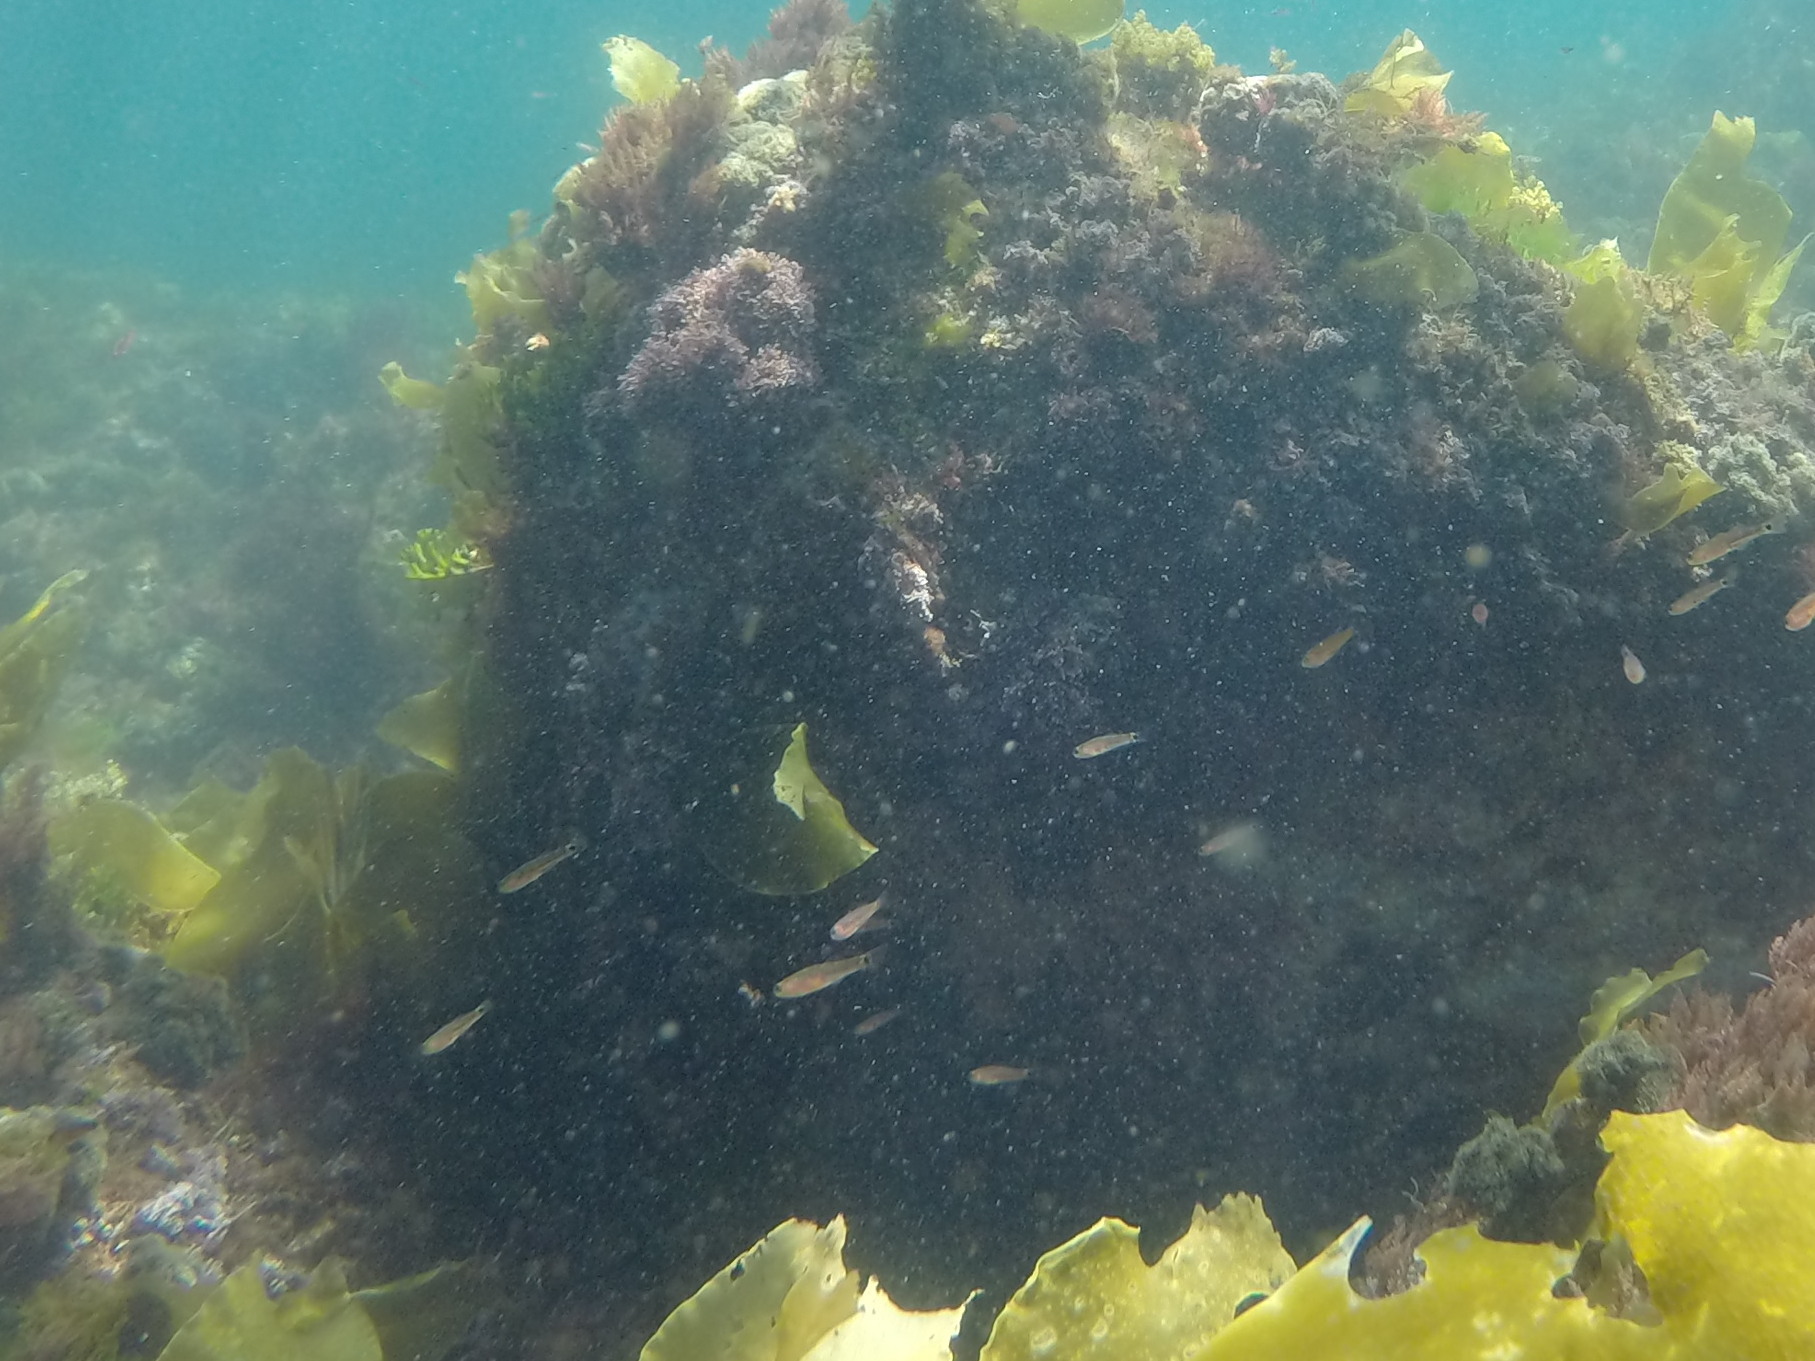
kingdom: Animalia
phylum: Chordata
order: Perciformes
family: Gobiidae
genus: Gobiusculus
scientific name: Gobiusculus flavescens
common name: Two-spotted goby
